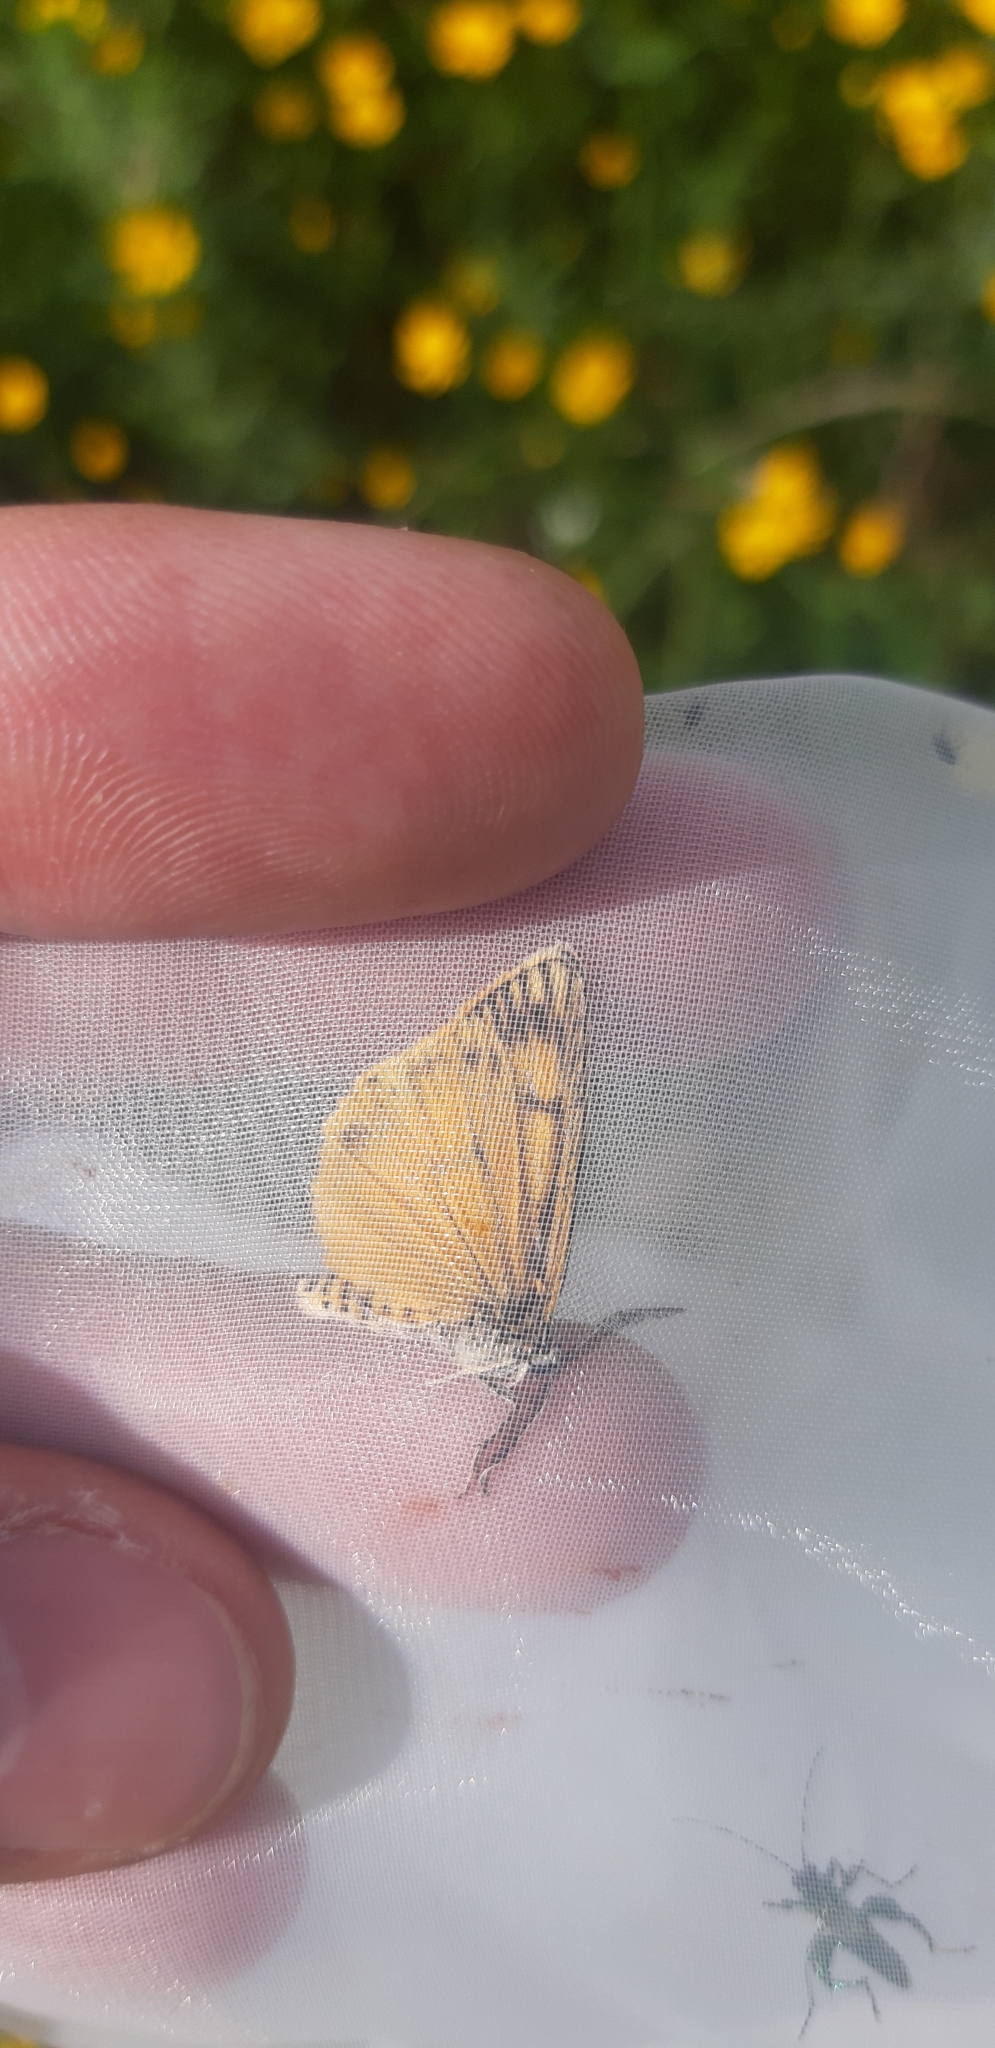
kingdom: Animalia
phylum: Arthropoda
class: Insecta
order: Lepidoptera
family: Erebidae
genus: Coscinia
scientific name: Coscinia Spiris striata
